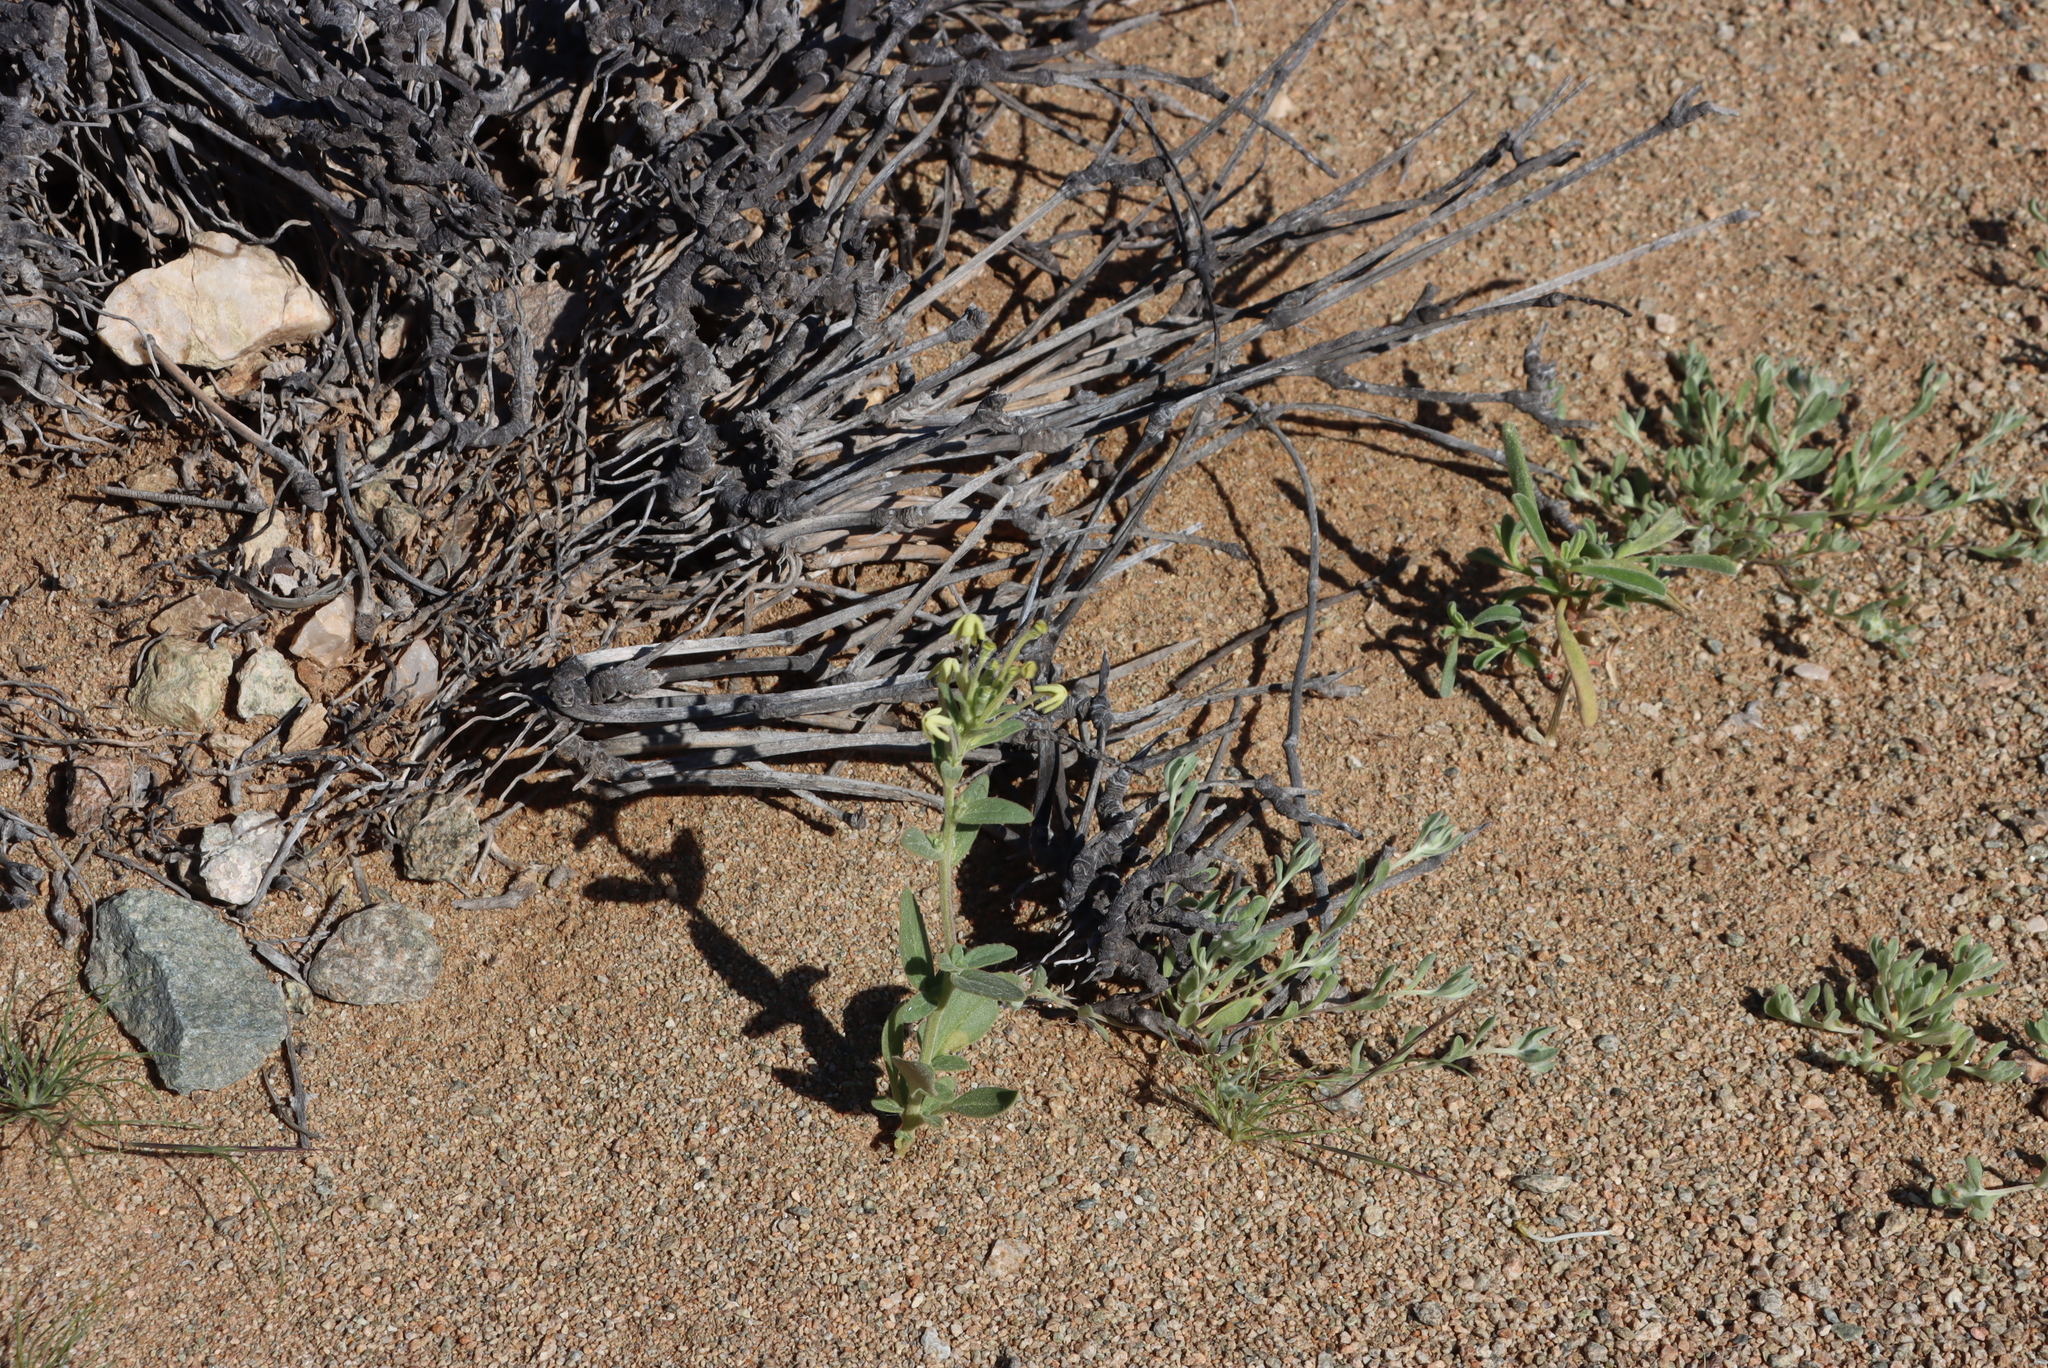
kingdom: Plantae
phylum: Tracheophyta
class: Magnoliopsida
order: Lamiales
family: Scrophulariaceae
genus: Lyperia
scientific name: Lyperia tristis
